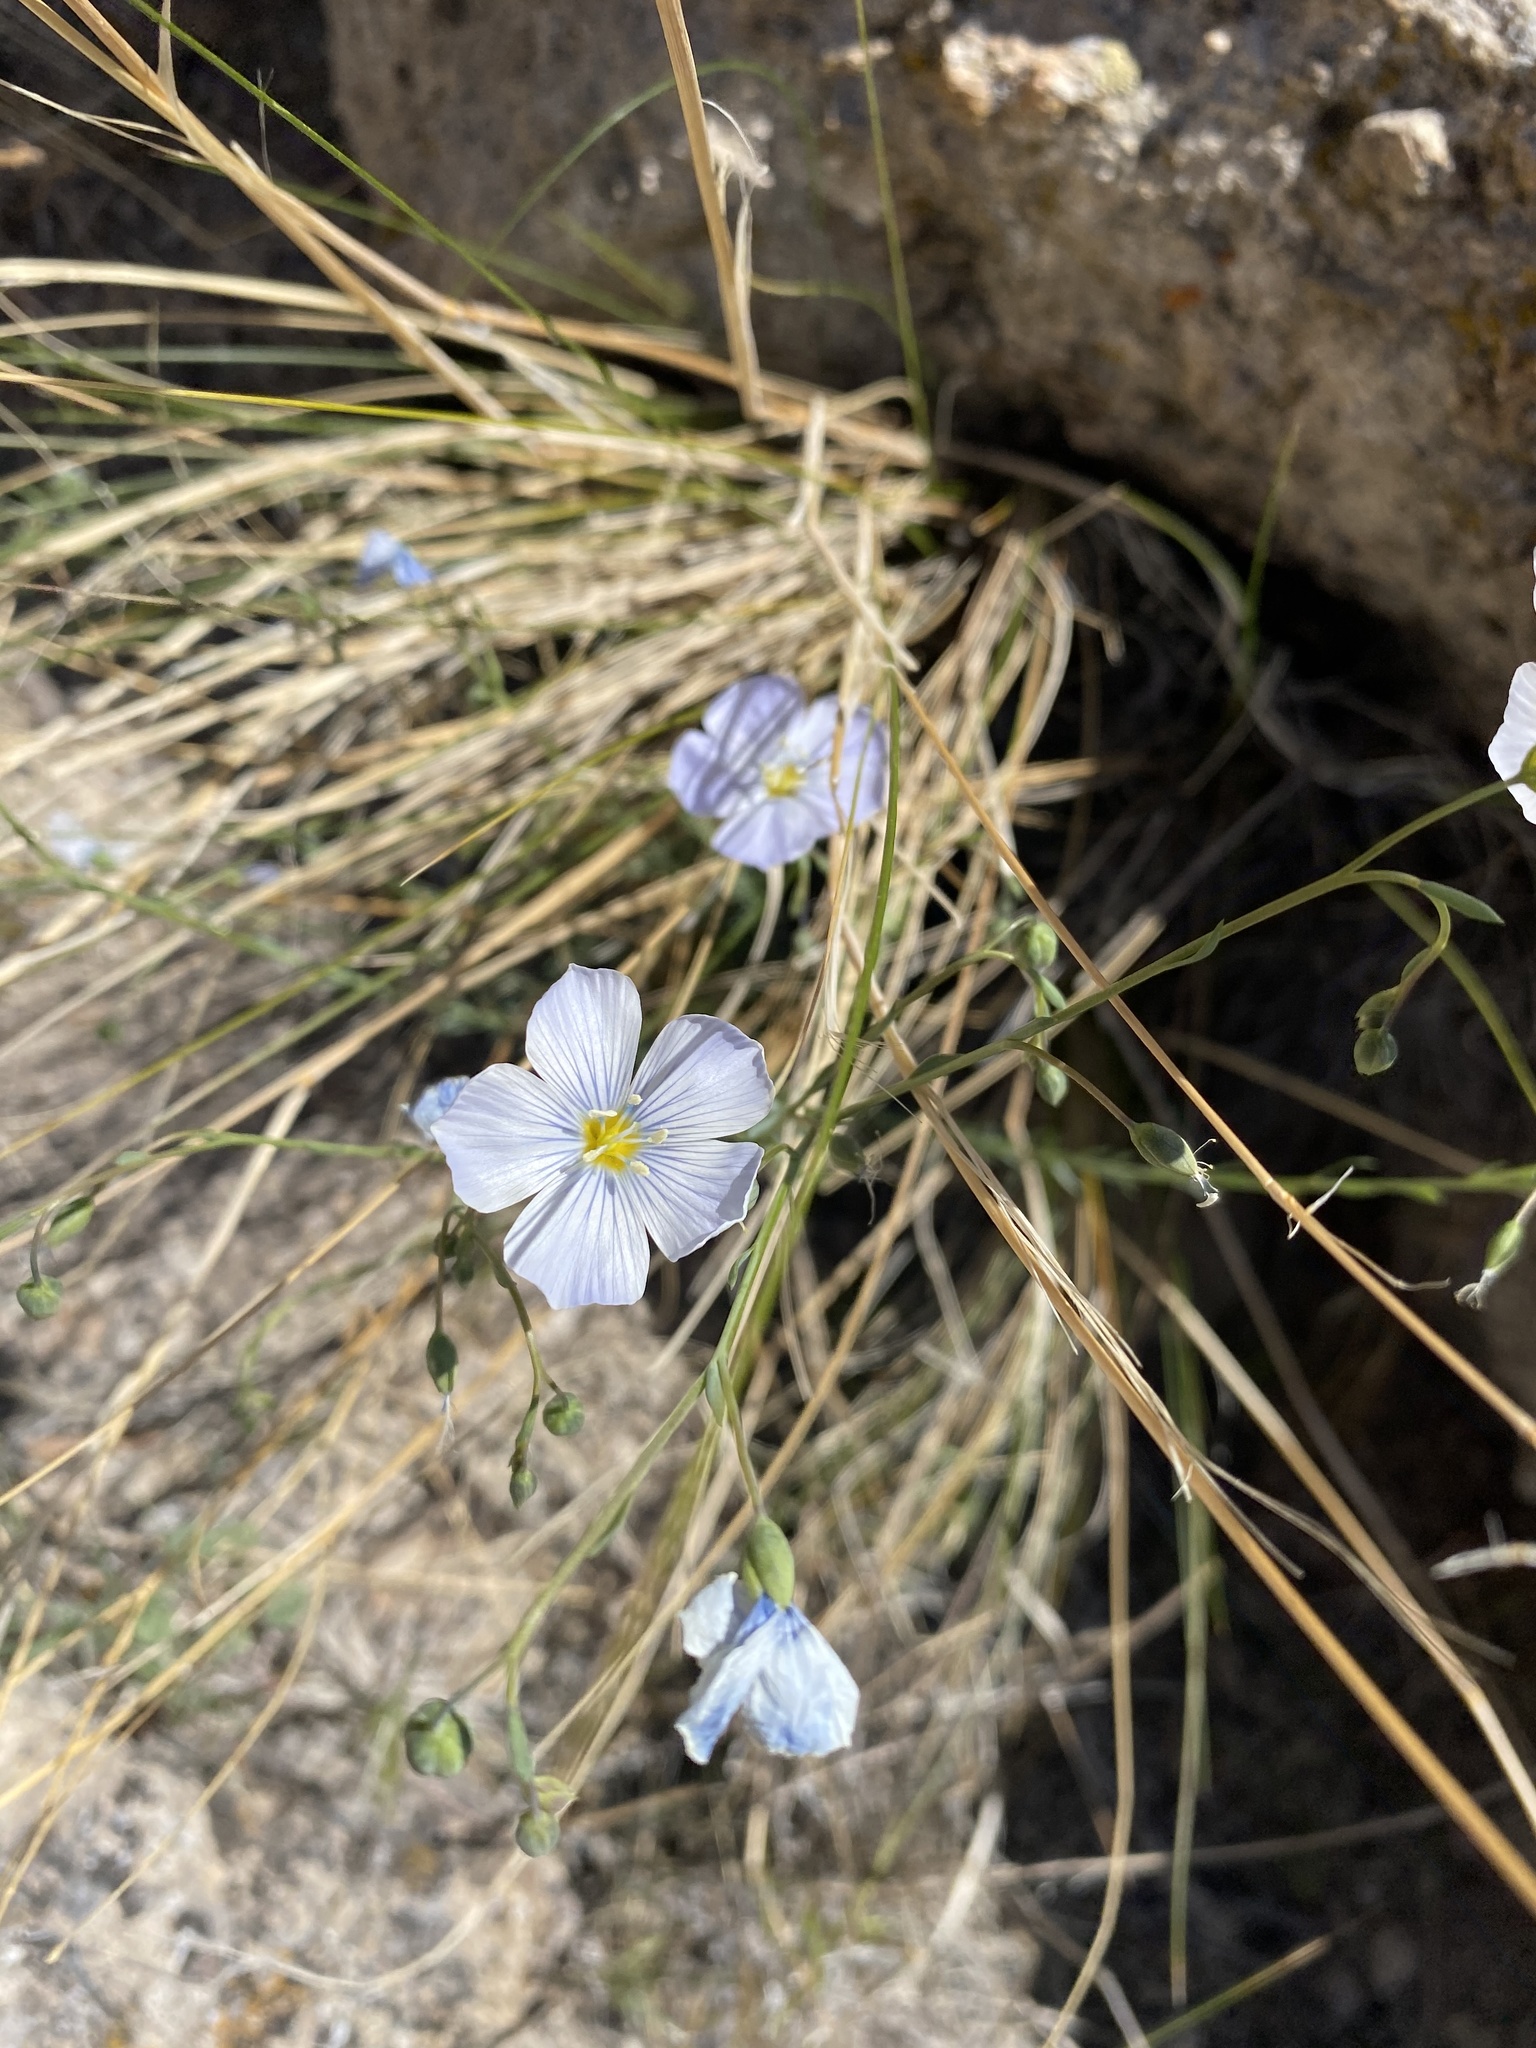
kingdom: Plantae
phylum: Tracheophyta
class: Magnoliopsida
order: Malpighiales
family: Linaceae
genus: Linum
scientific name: Linum lewisii
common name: Prairie flax
